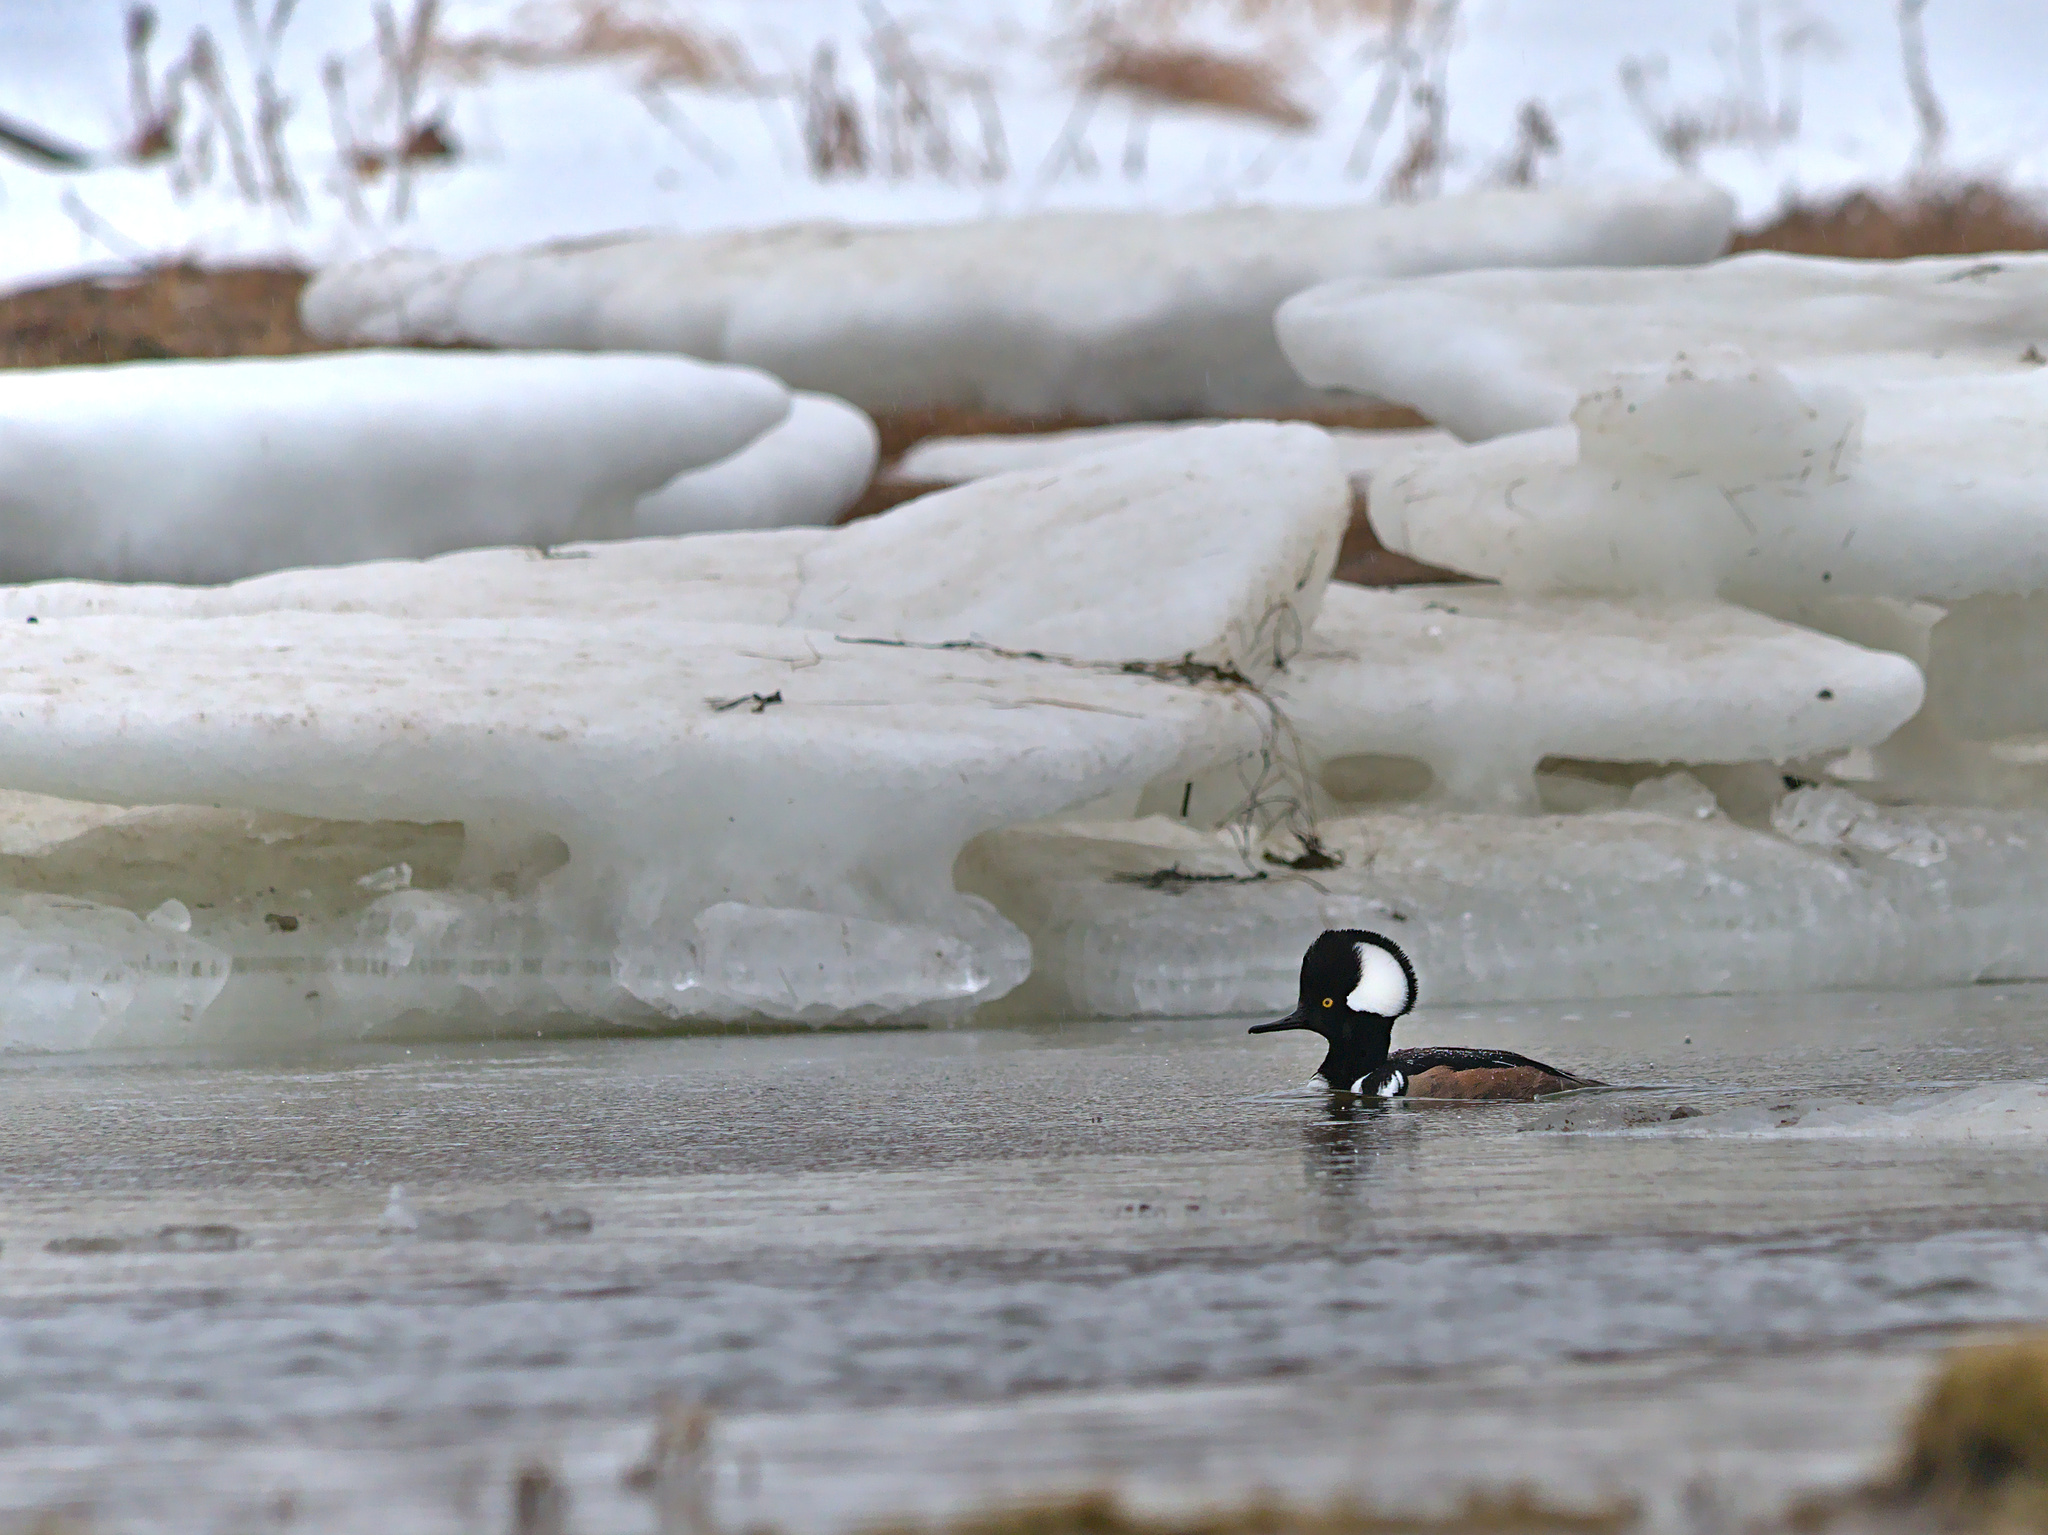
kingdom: Animalia
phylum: Chordata
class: Aves
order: Anseriformes
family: Anatidae
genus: Lophodytes
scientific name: Lophodytes cucullatus
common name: Hooded merganser
